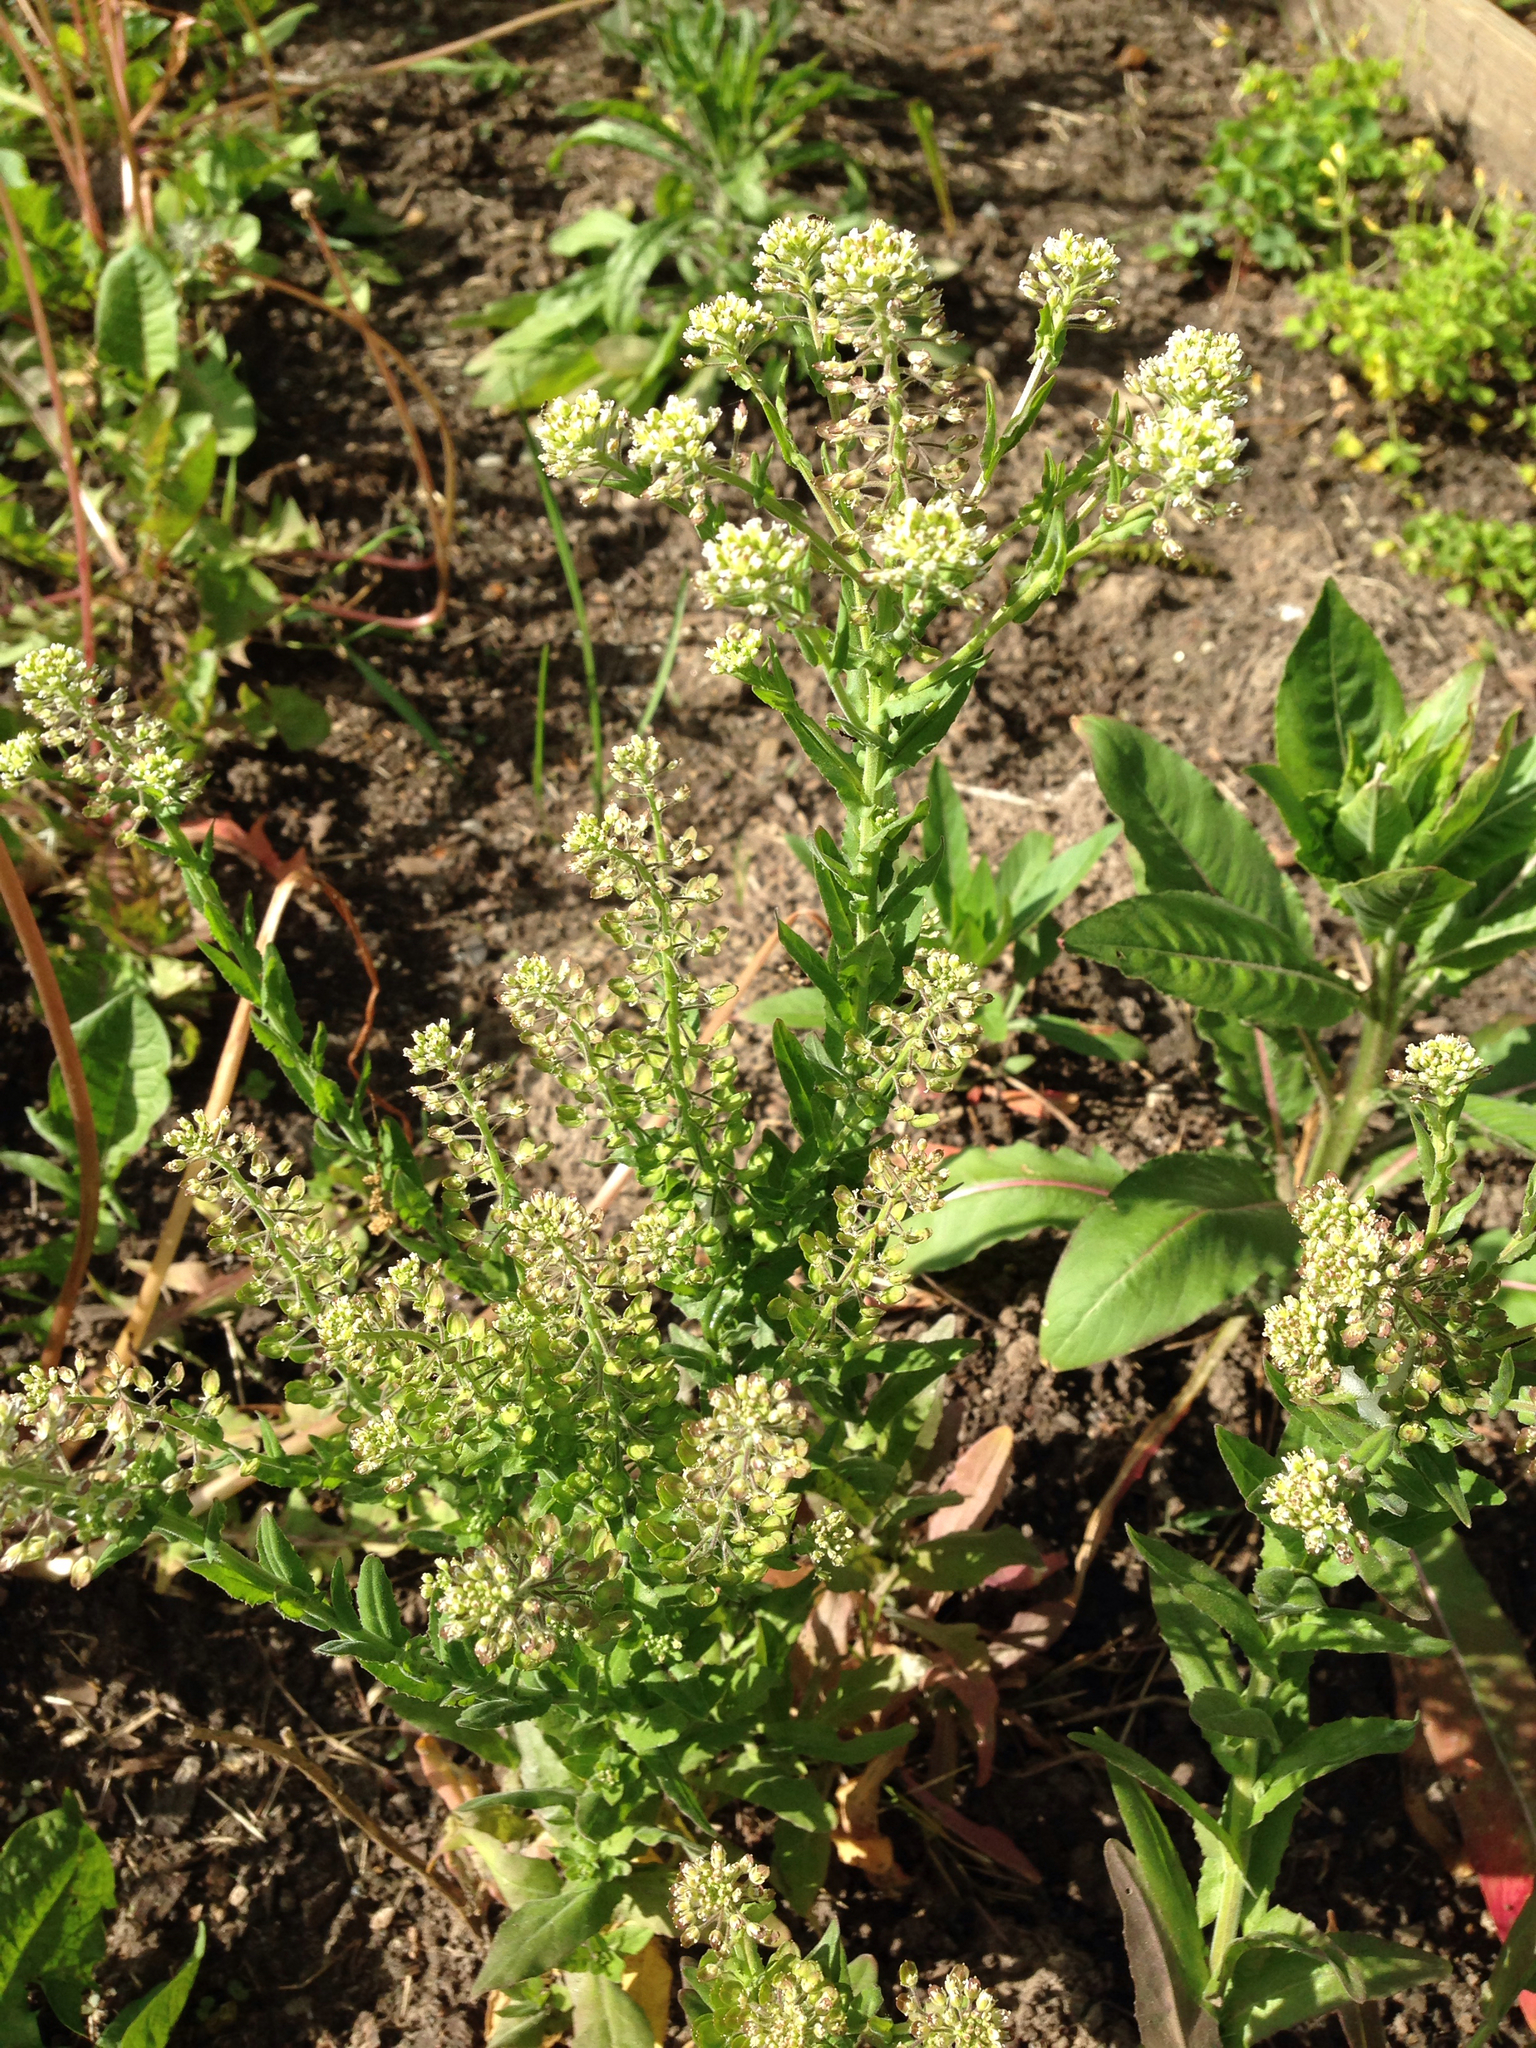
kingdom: Plantae
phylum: Tracheophyta
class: Magnoliopsida
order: Brassicales
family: Brassicaceae
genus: Lepidium
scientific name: Lepidium campestre
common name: Field pepperwort
